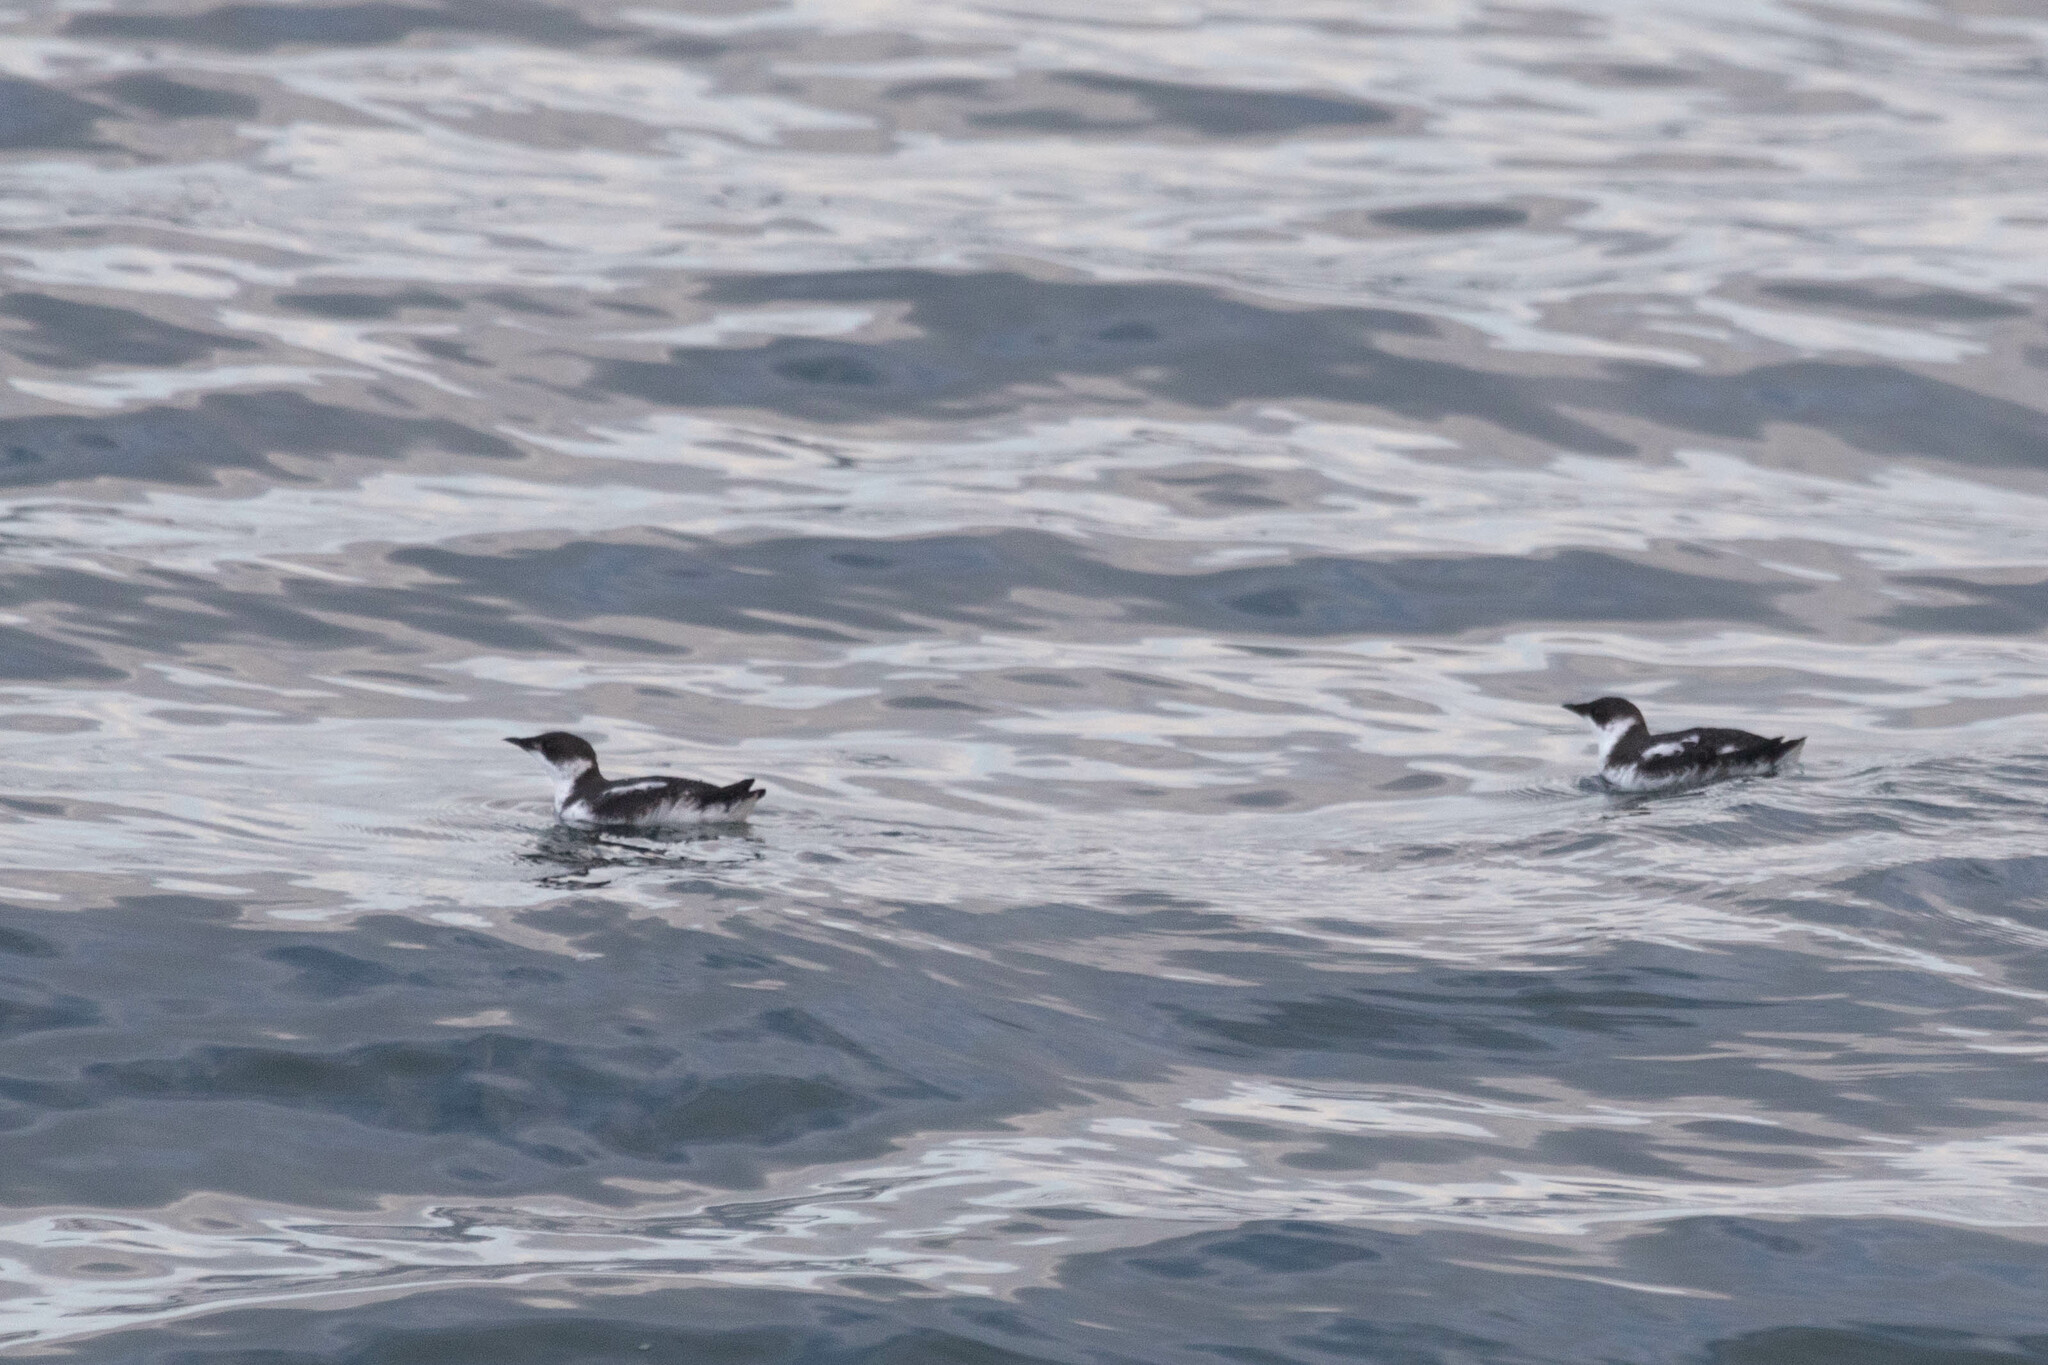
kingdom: Animalia
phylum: Chordata
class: Aves
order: Charadriiformes
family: Alcidae
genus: Brachyramphus
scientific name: Brachyramphus marmoratus
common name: Marbled murrelet
